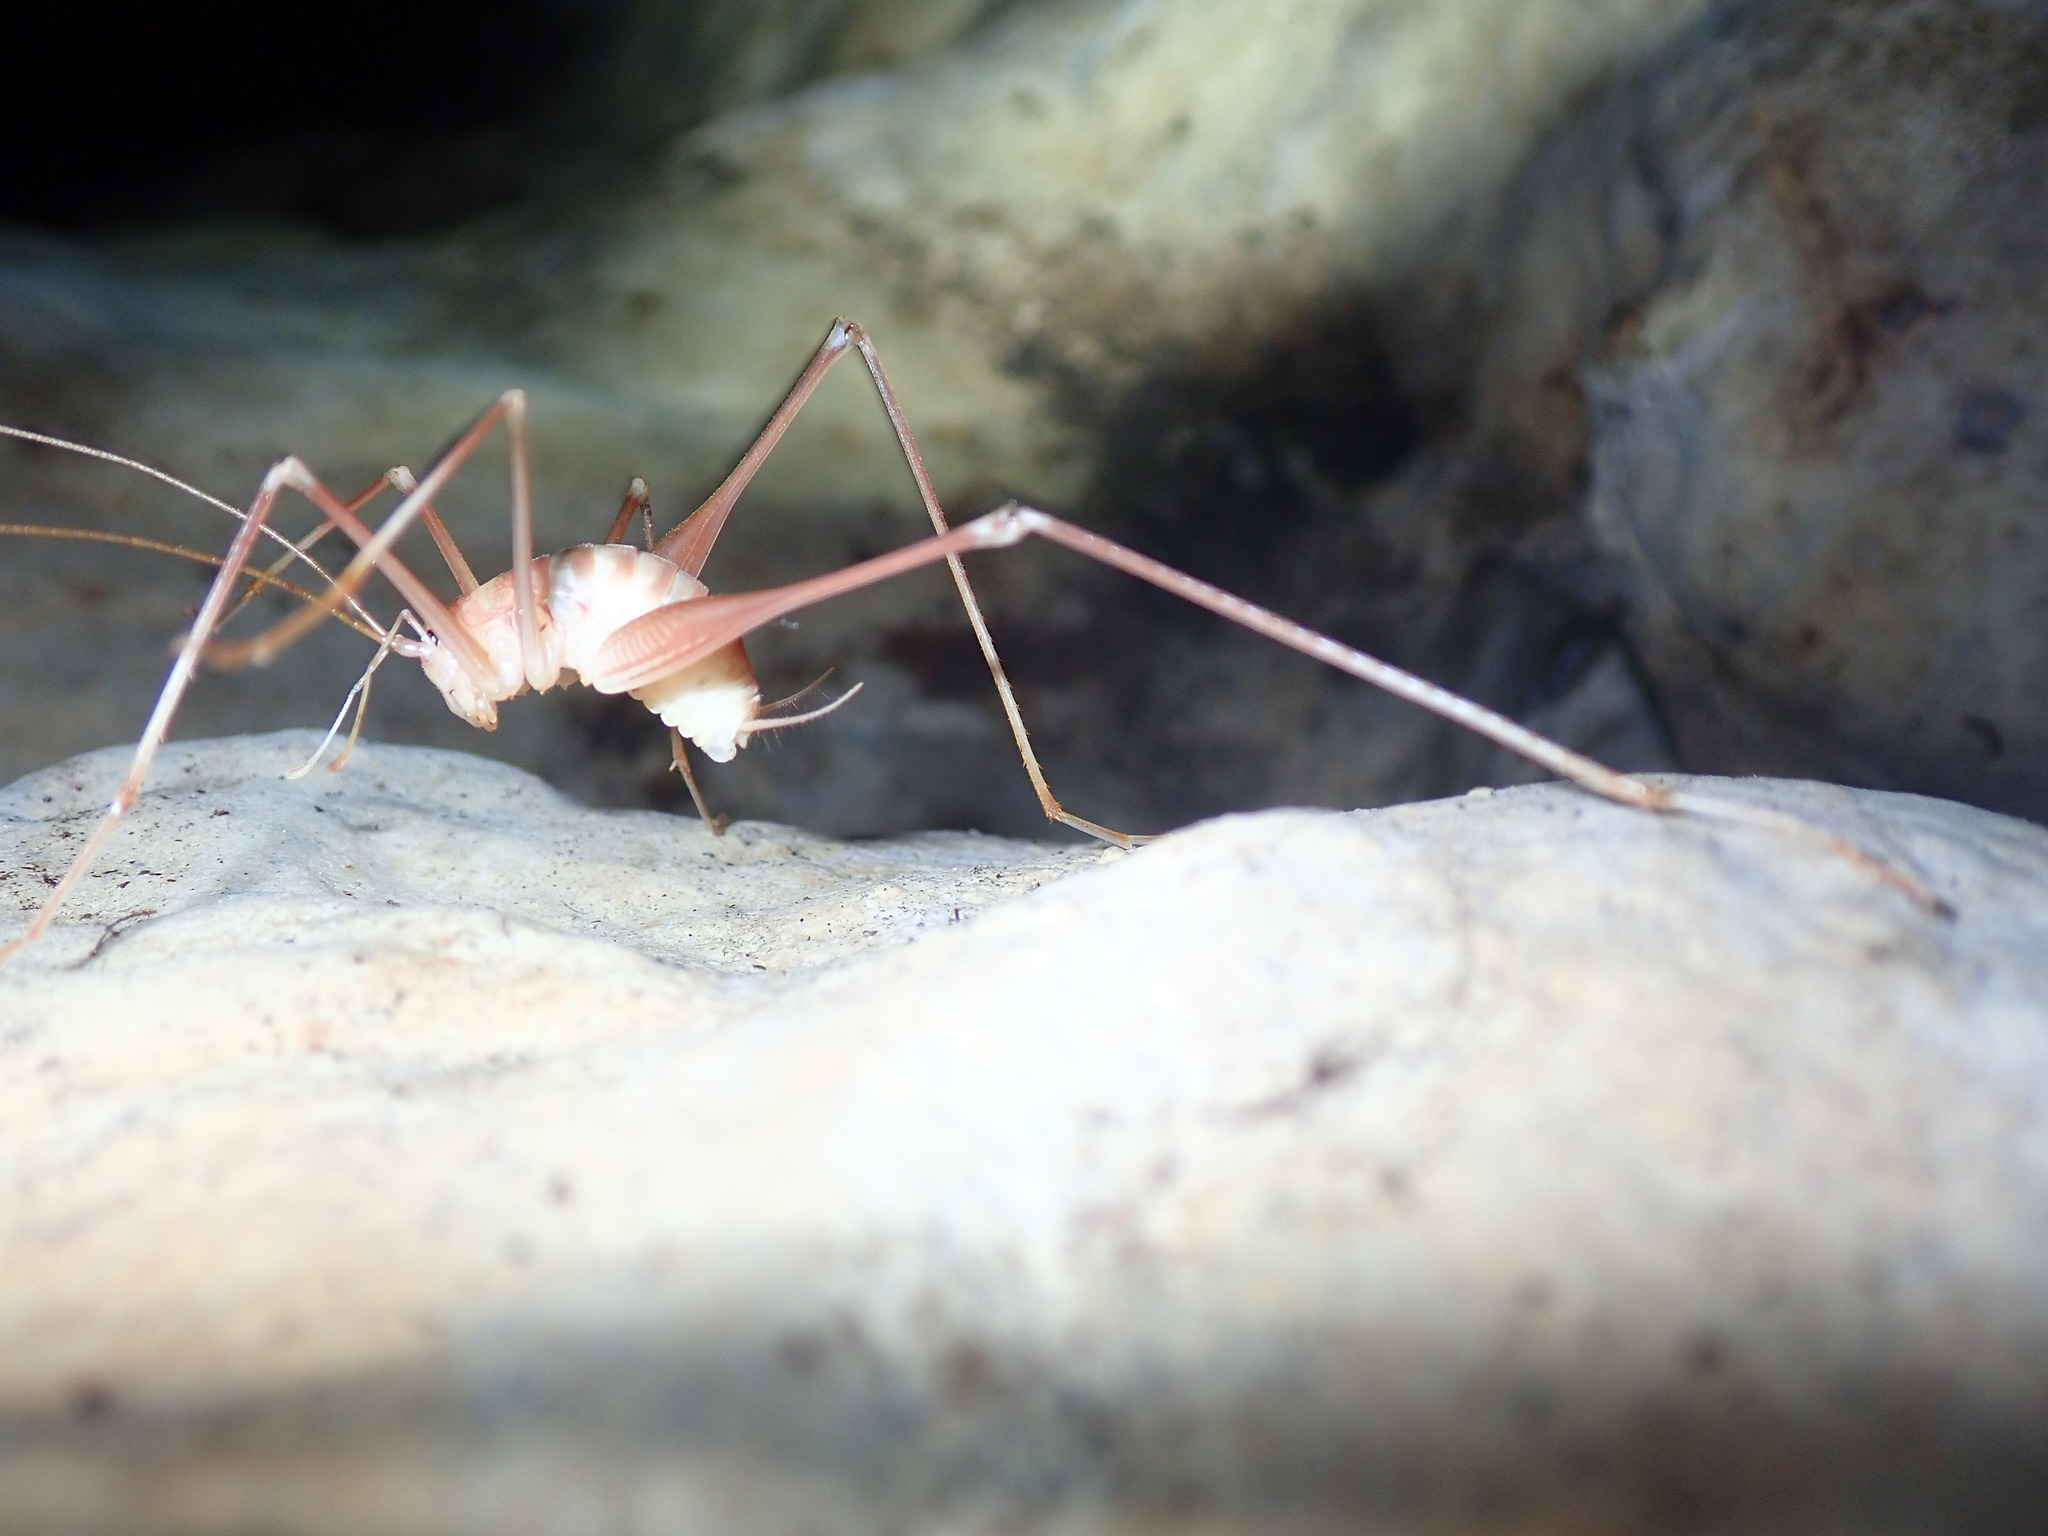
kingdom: Animalia
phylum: Arthropoda
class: Insecta
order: Orthoptera
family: Rhaphidophoridae
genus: Dolichopoda
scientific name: Dolichopoda araneiformis
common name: Spidery cave-cricket
